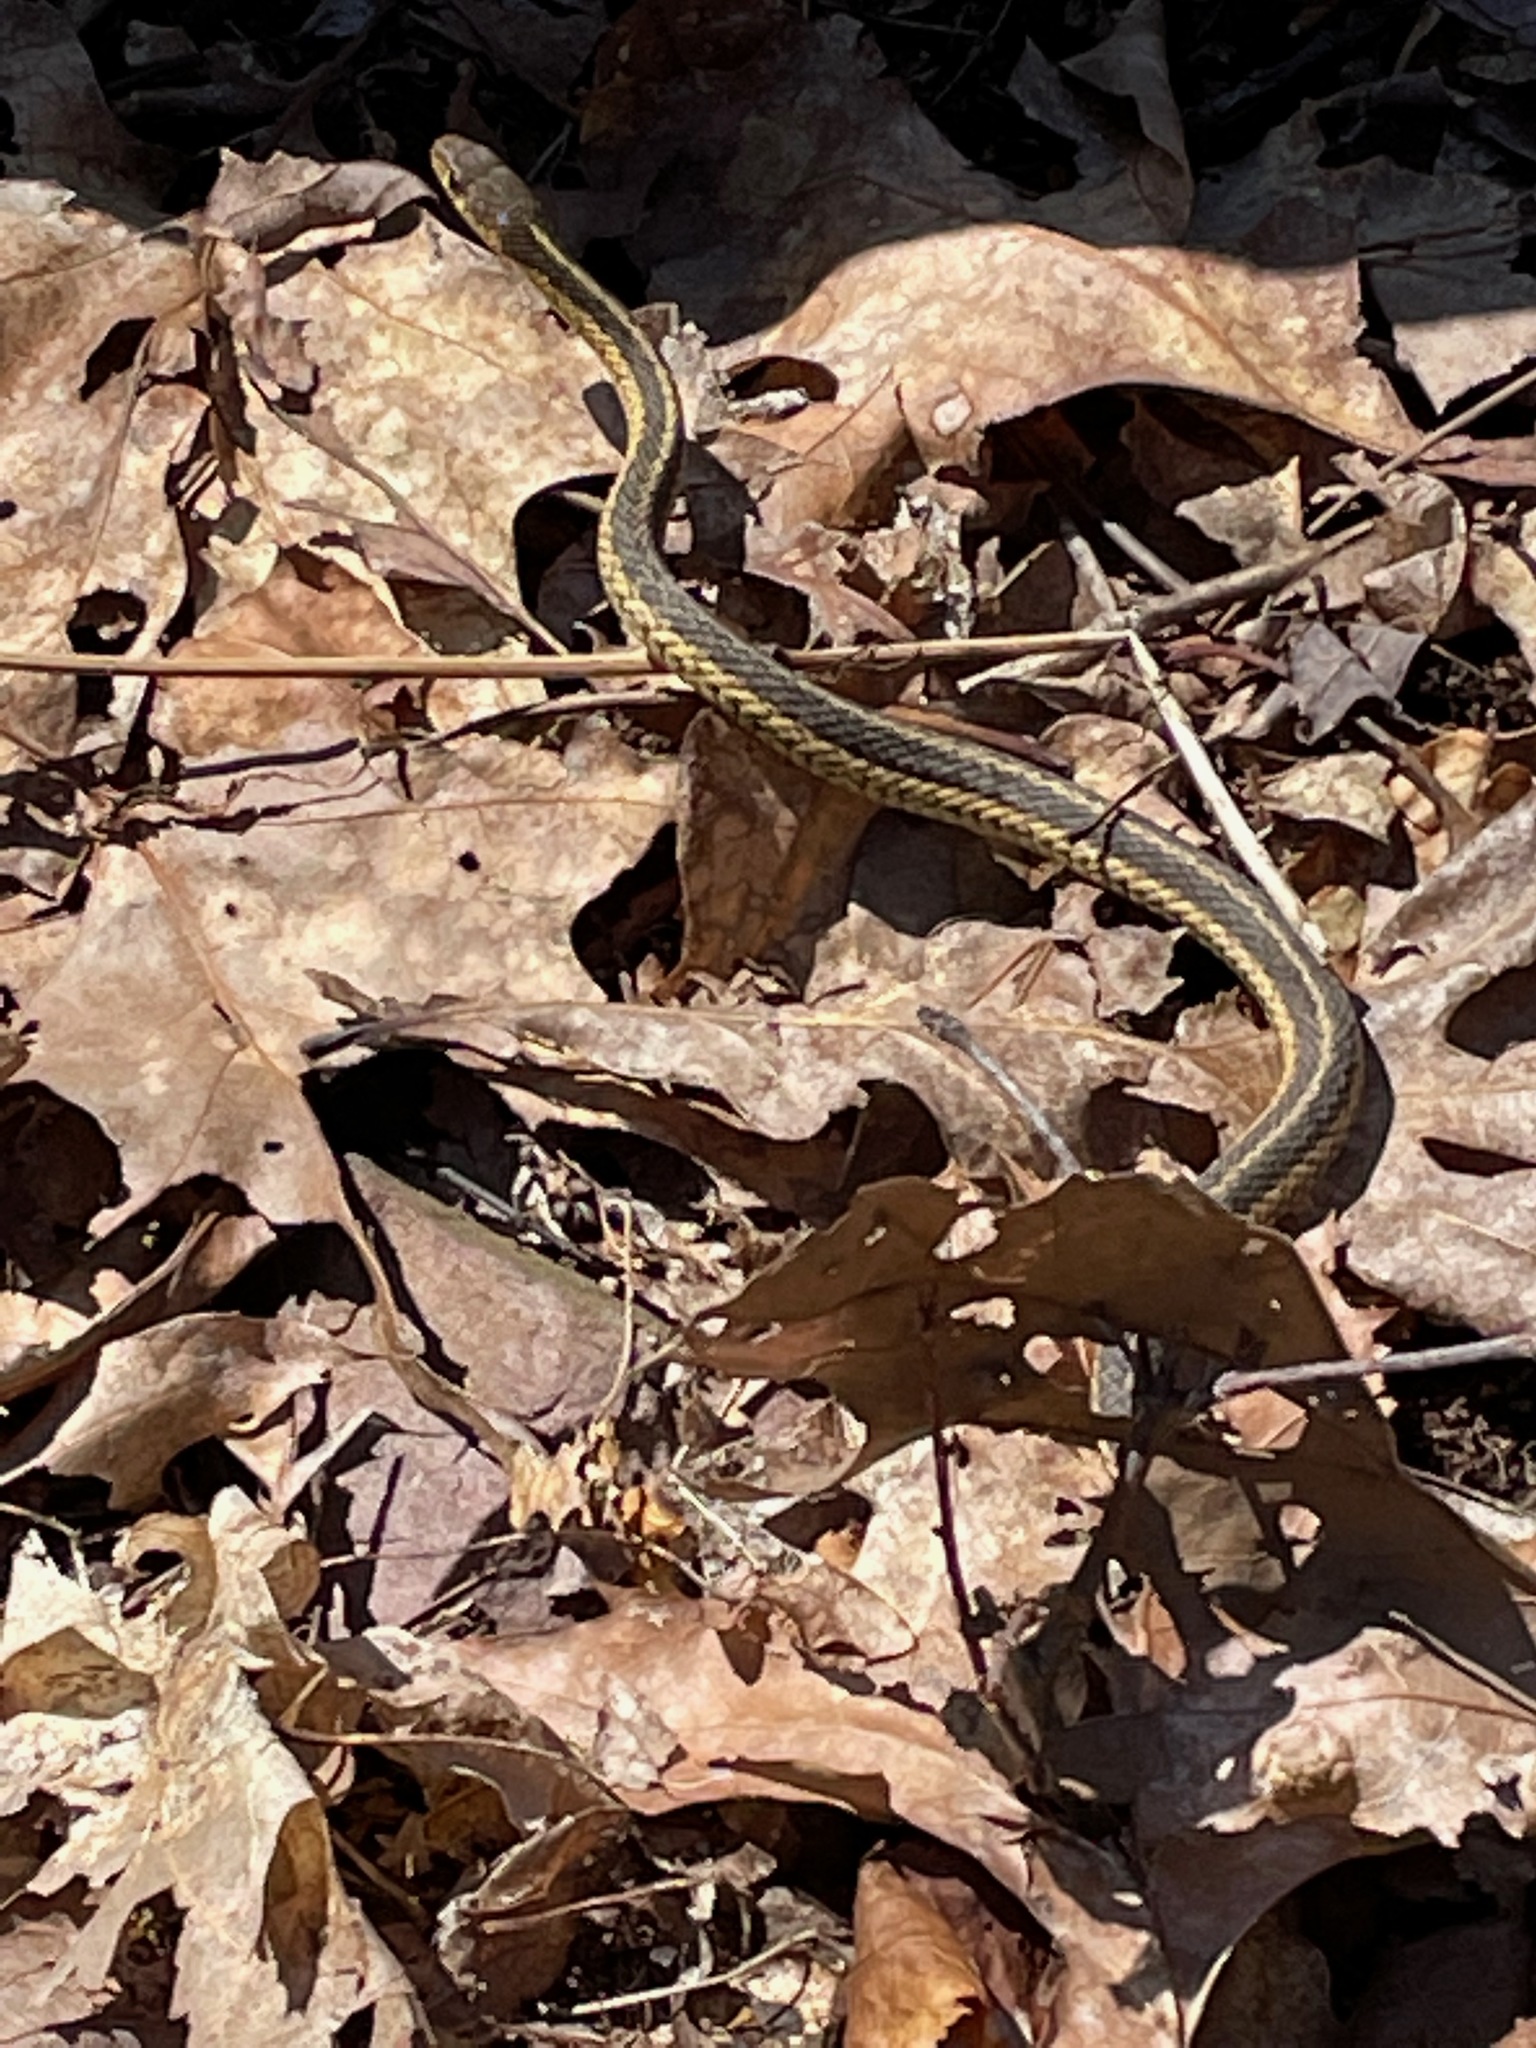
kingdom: Animalia
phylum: Chordata
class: Squamata
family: Colubridae
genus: Thamnophis
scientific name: Thamnophis sirtalis
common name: Common garter snake
